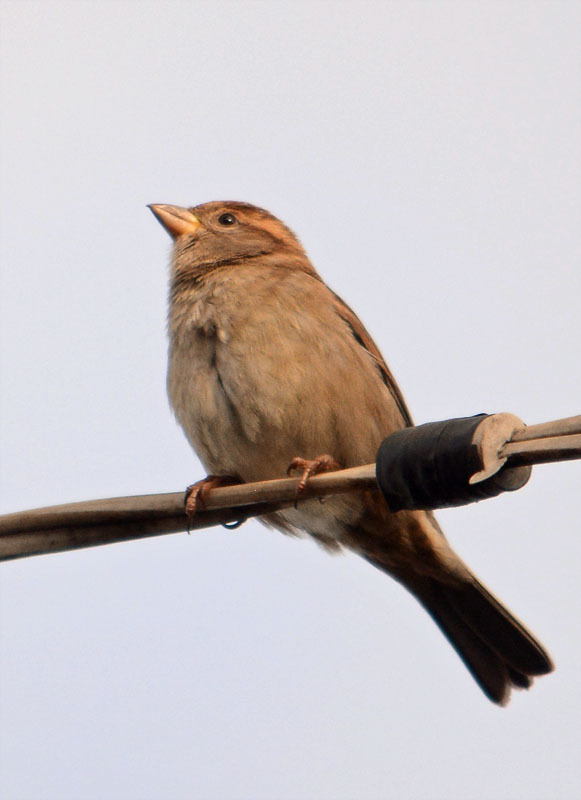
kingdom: Animalia
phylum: Chordata
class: Aves
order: Passeriformes
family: Passeridae
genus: Passer
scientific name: Passer domesticus
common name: House sparrow
